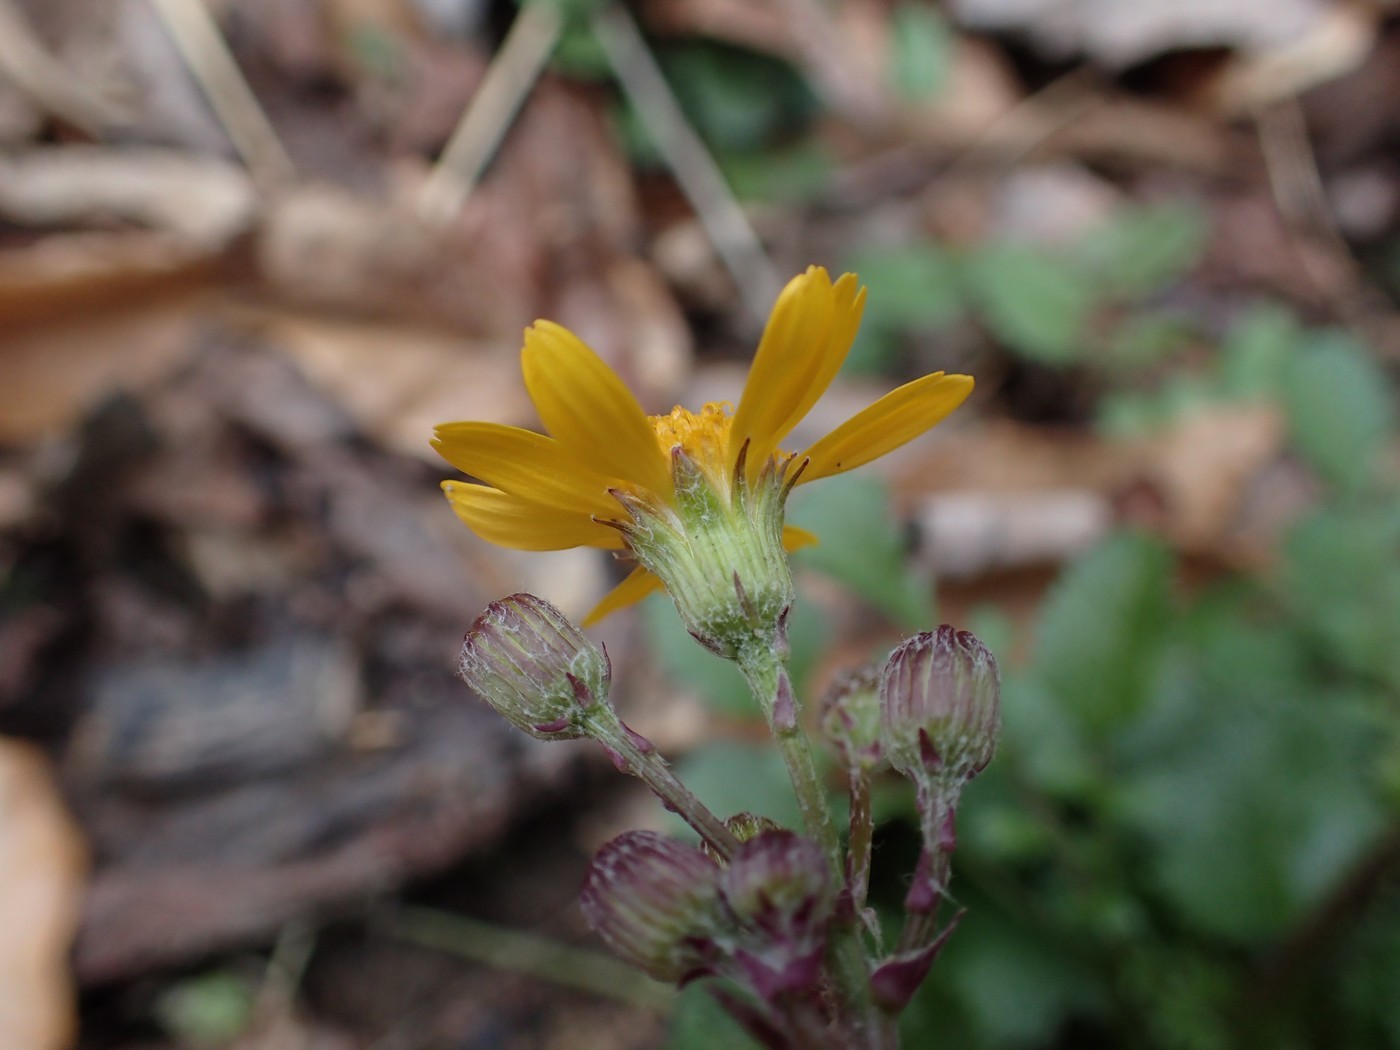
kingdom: Plantae
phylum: Tracheophyta
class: Magnoliopsida
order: Asterales
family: Asteraceae
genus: Packera
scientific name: Packera aurea
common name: Golden groundsel
